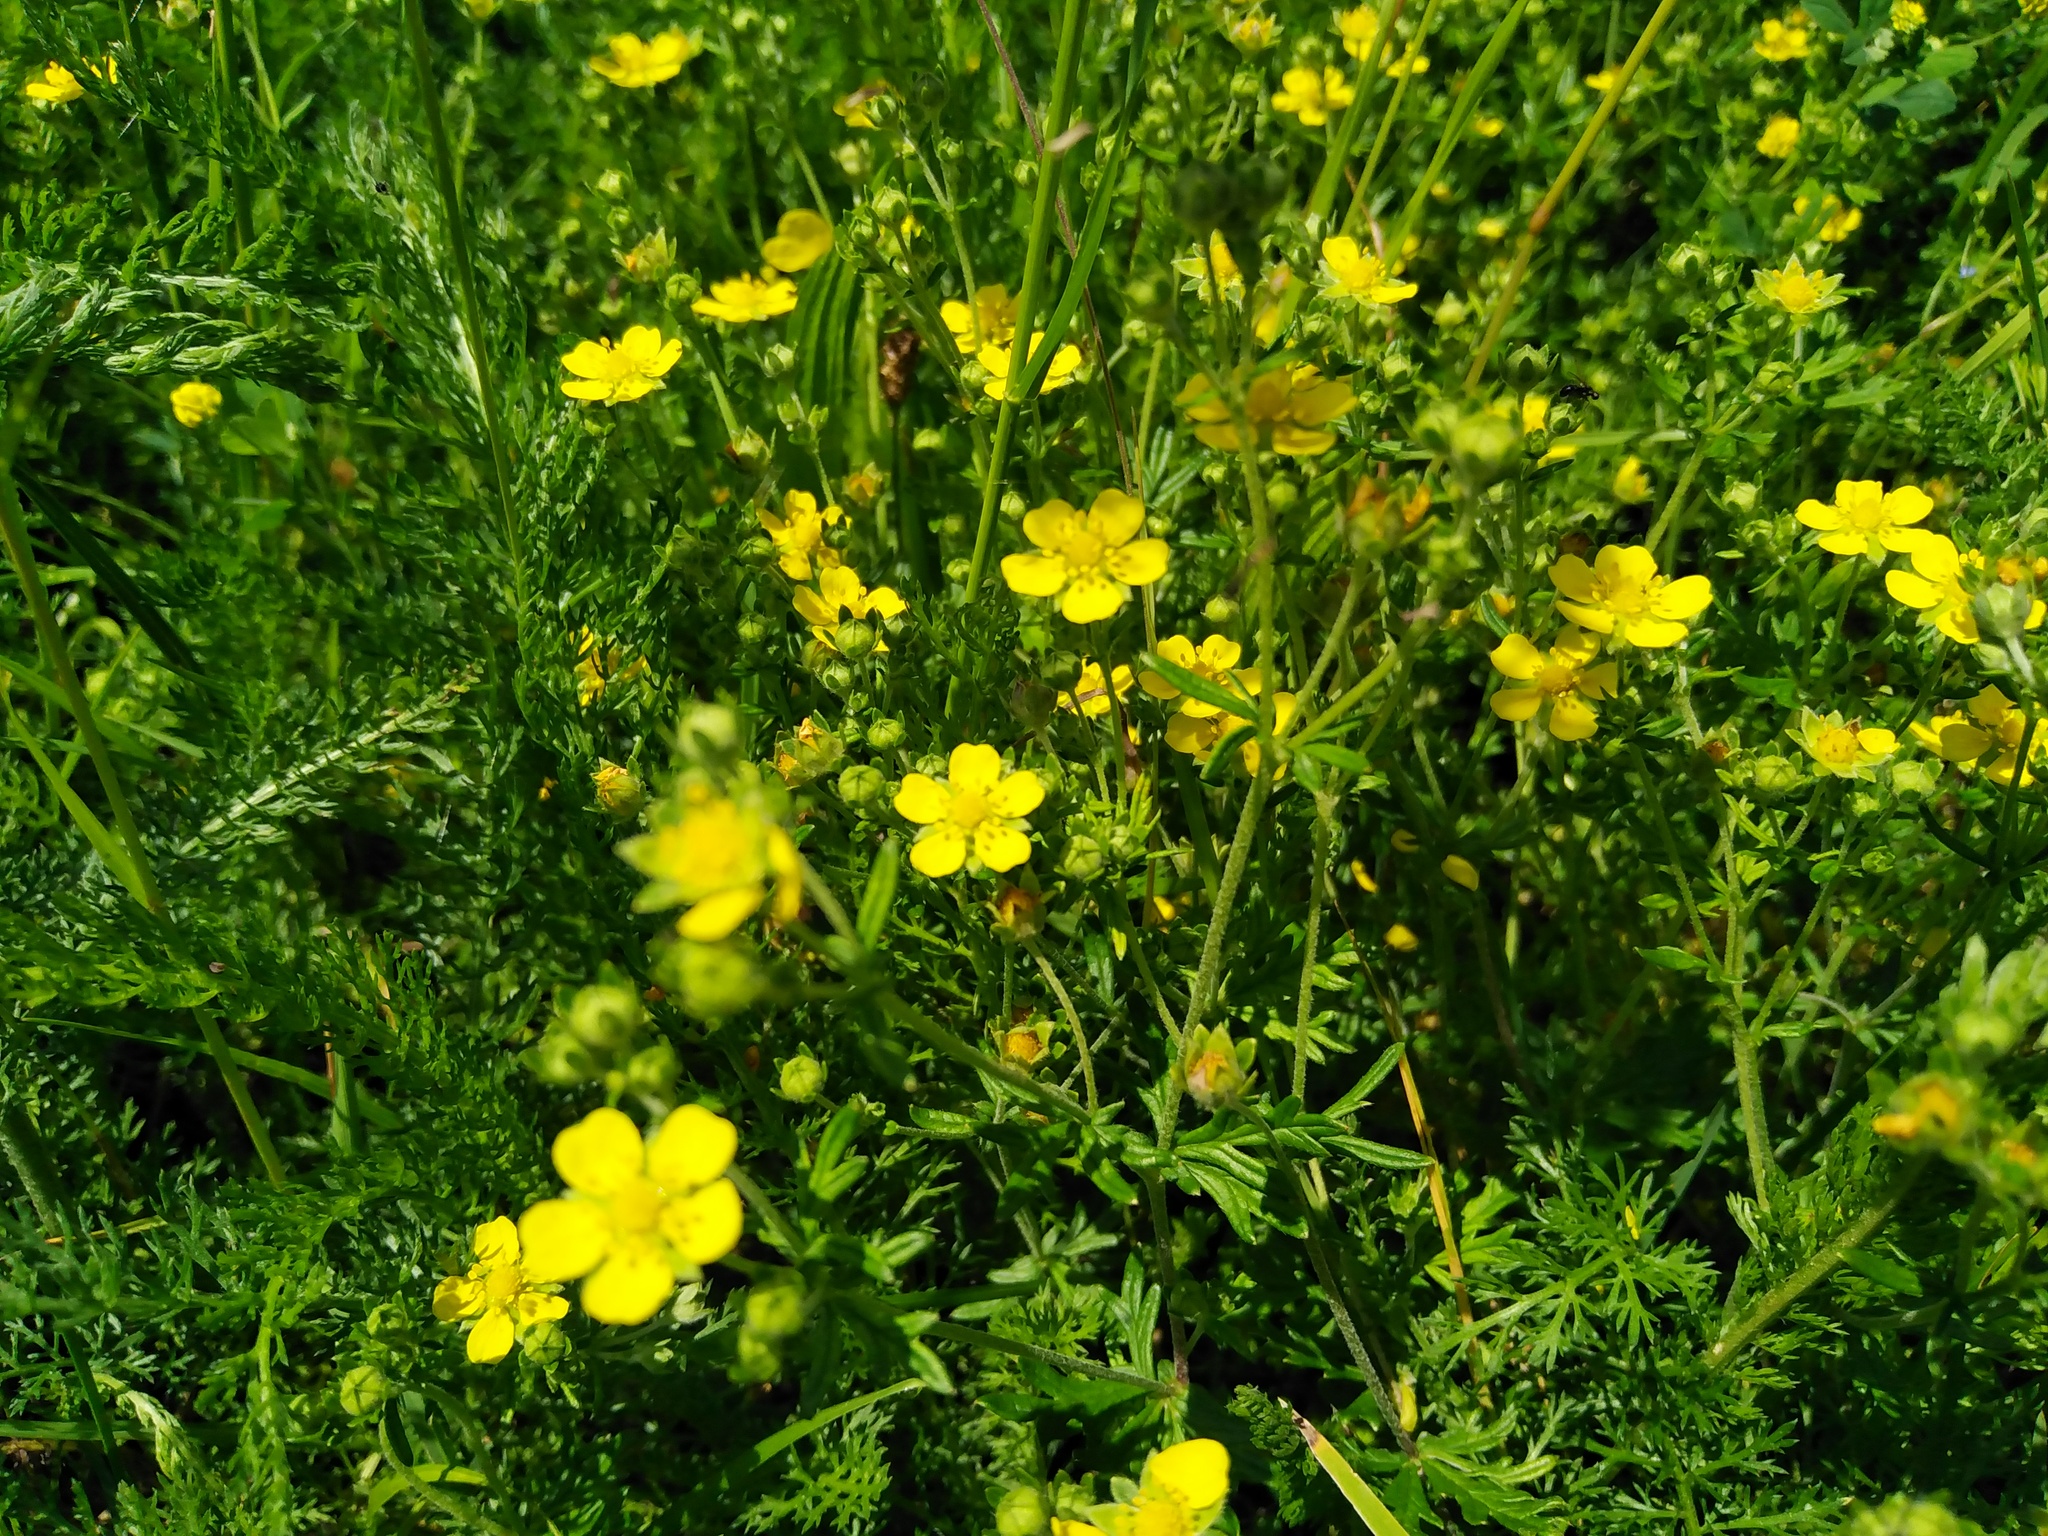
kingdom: Plantae
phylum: Tracheophyta
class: Magnoliopsida
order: Rosales
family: Rosaceae
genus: Potentilla
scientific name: Potentilla argentea
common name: Hoary cinquefoil
